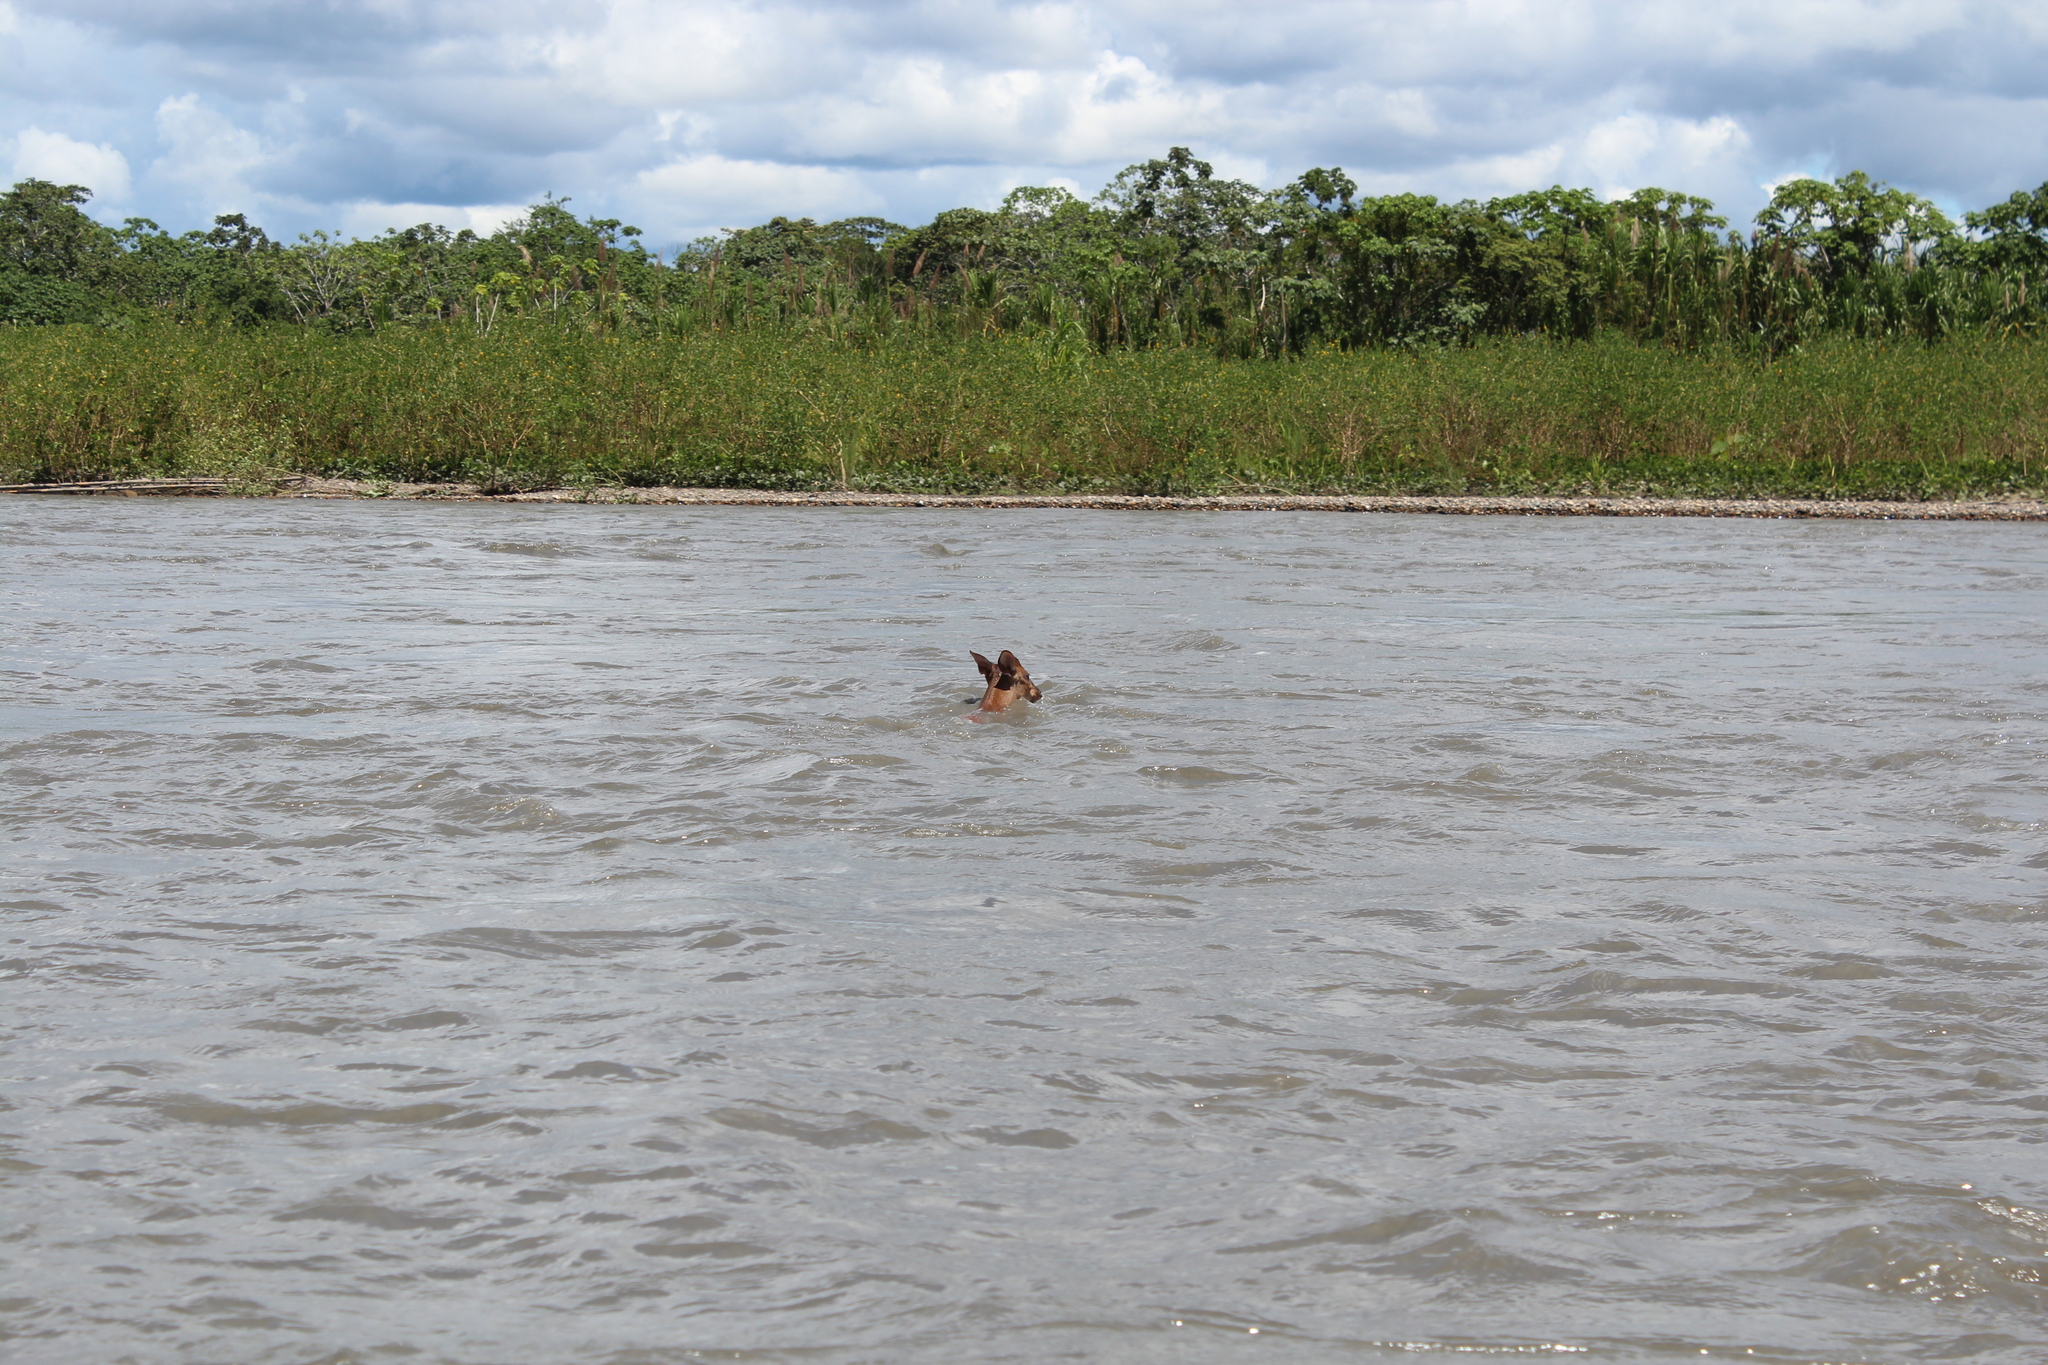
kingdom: Animalia
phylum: Chordata
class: Mammalia
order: Artiodactyla
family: Cervidae
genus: Mazama
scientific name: Mazama americana
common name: Red brocket
